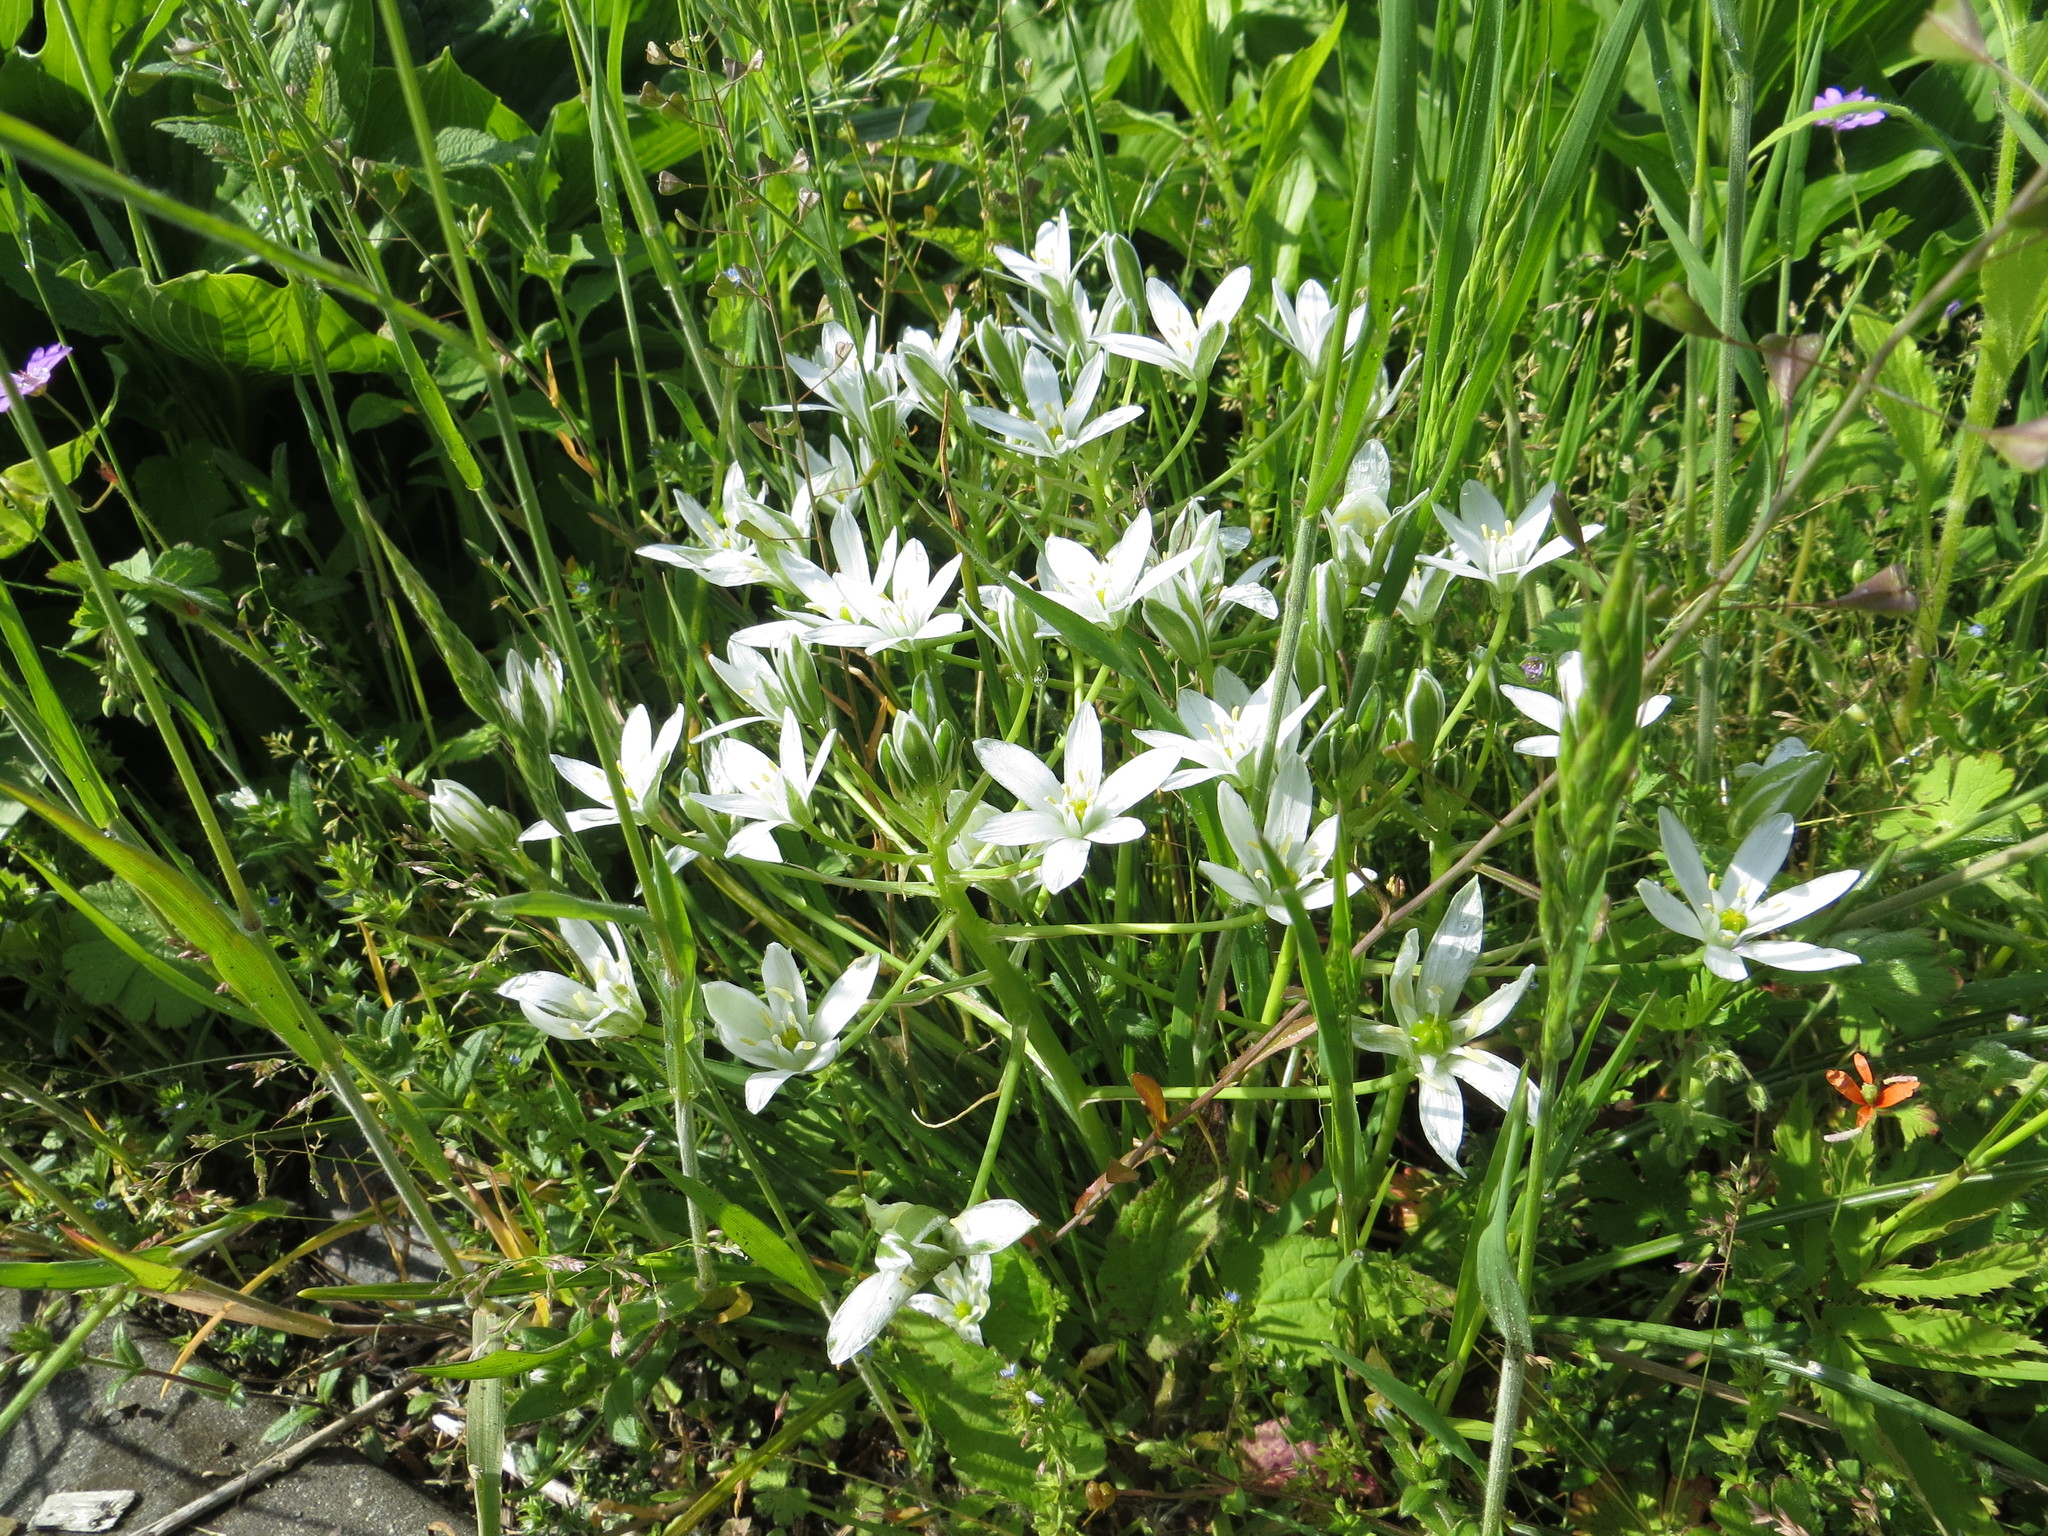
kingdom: Plantae
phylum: Tracheophyta
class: Liliopsida
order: Asparagales
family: Asparagaceae
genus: Ornithogalum
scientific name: Ornithogalum orthophyllum
